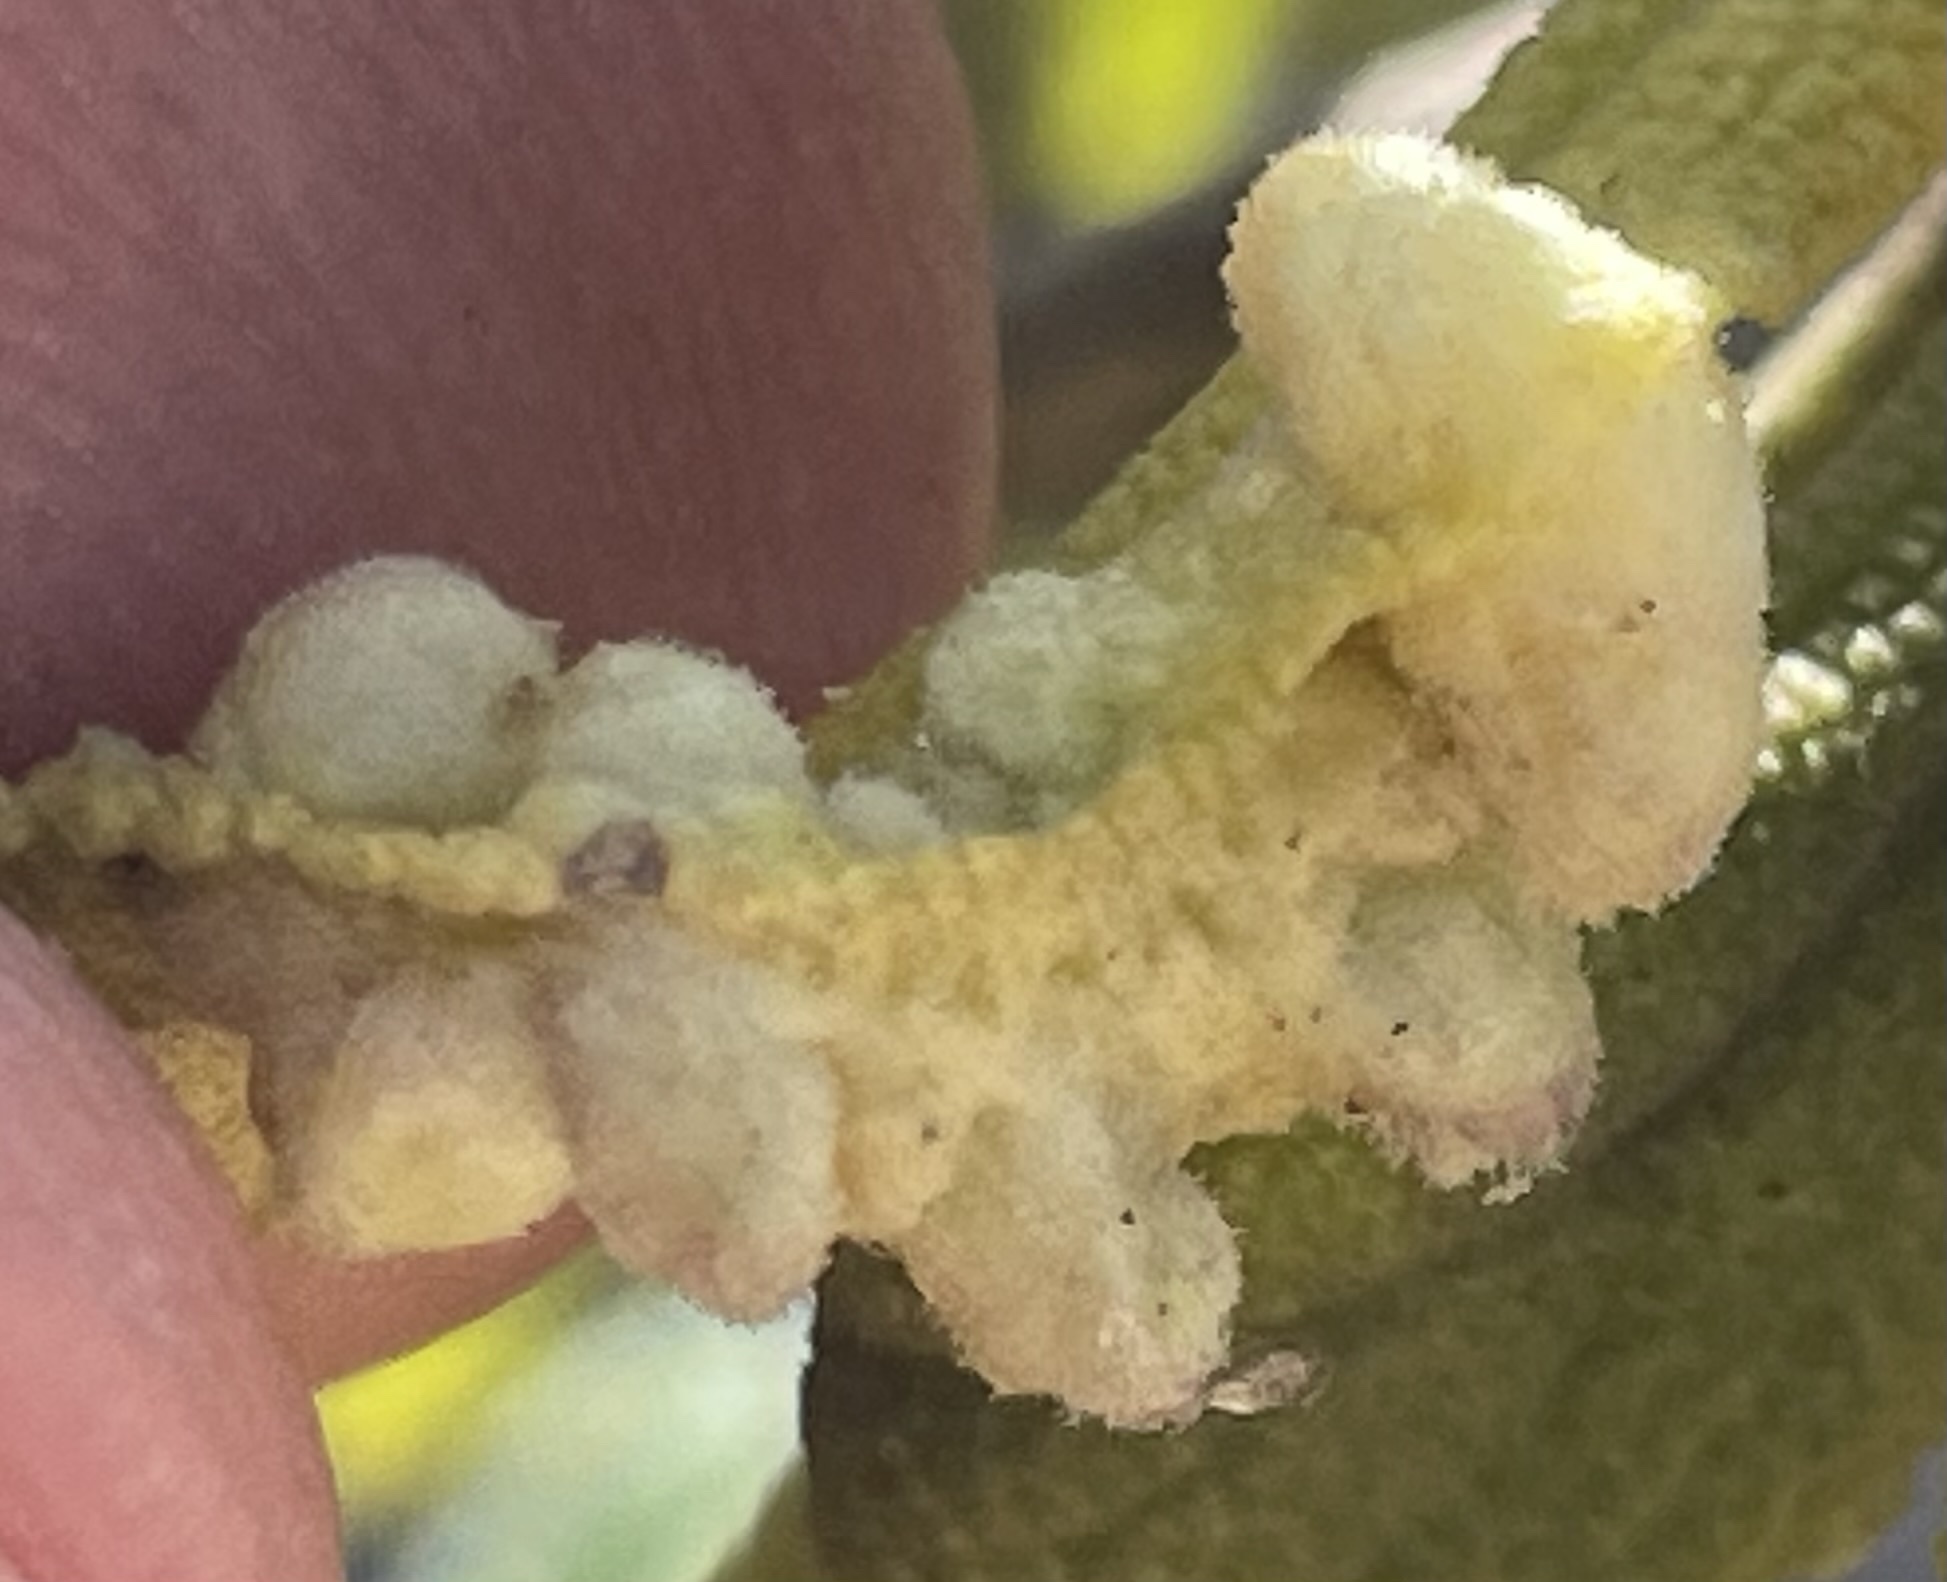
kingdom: Animalia
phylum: Arthropoda
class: Insecta
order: Diptera
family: Cecidomyiidae
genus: Rhopalomyia
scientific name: Rhopalomyia audibertiae
